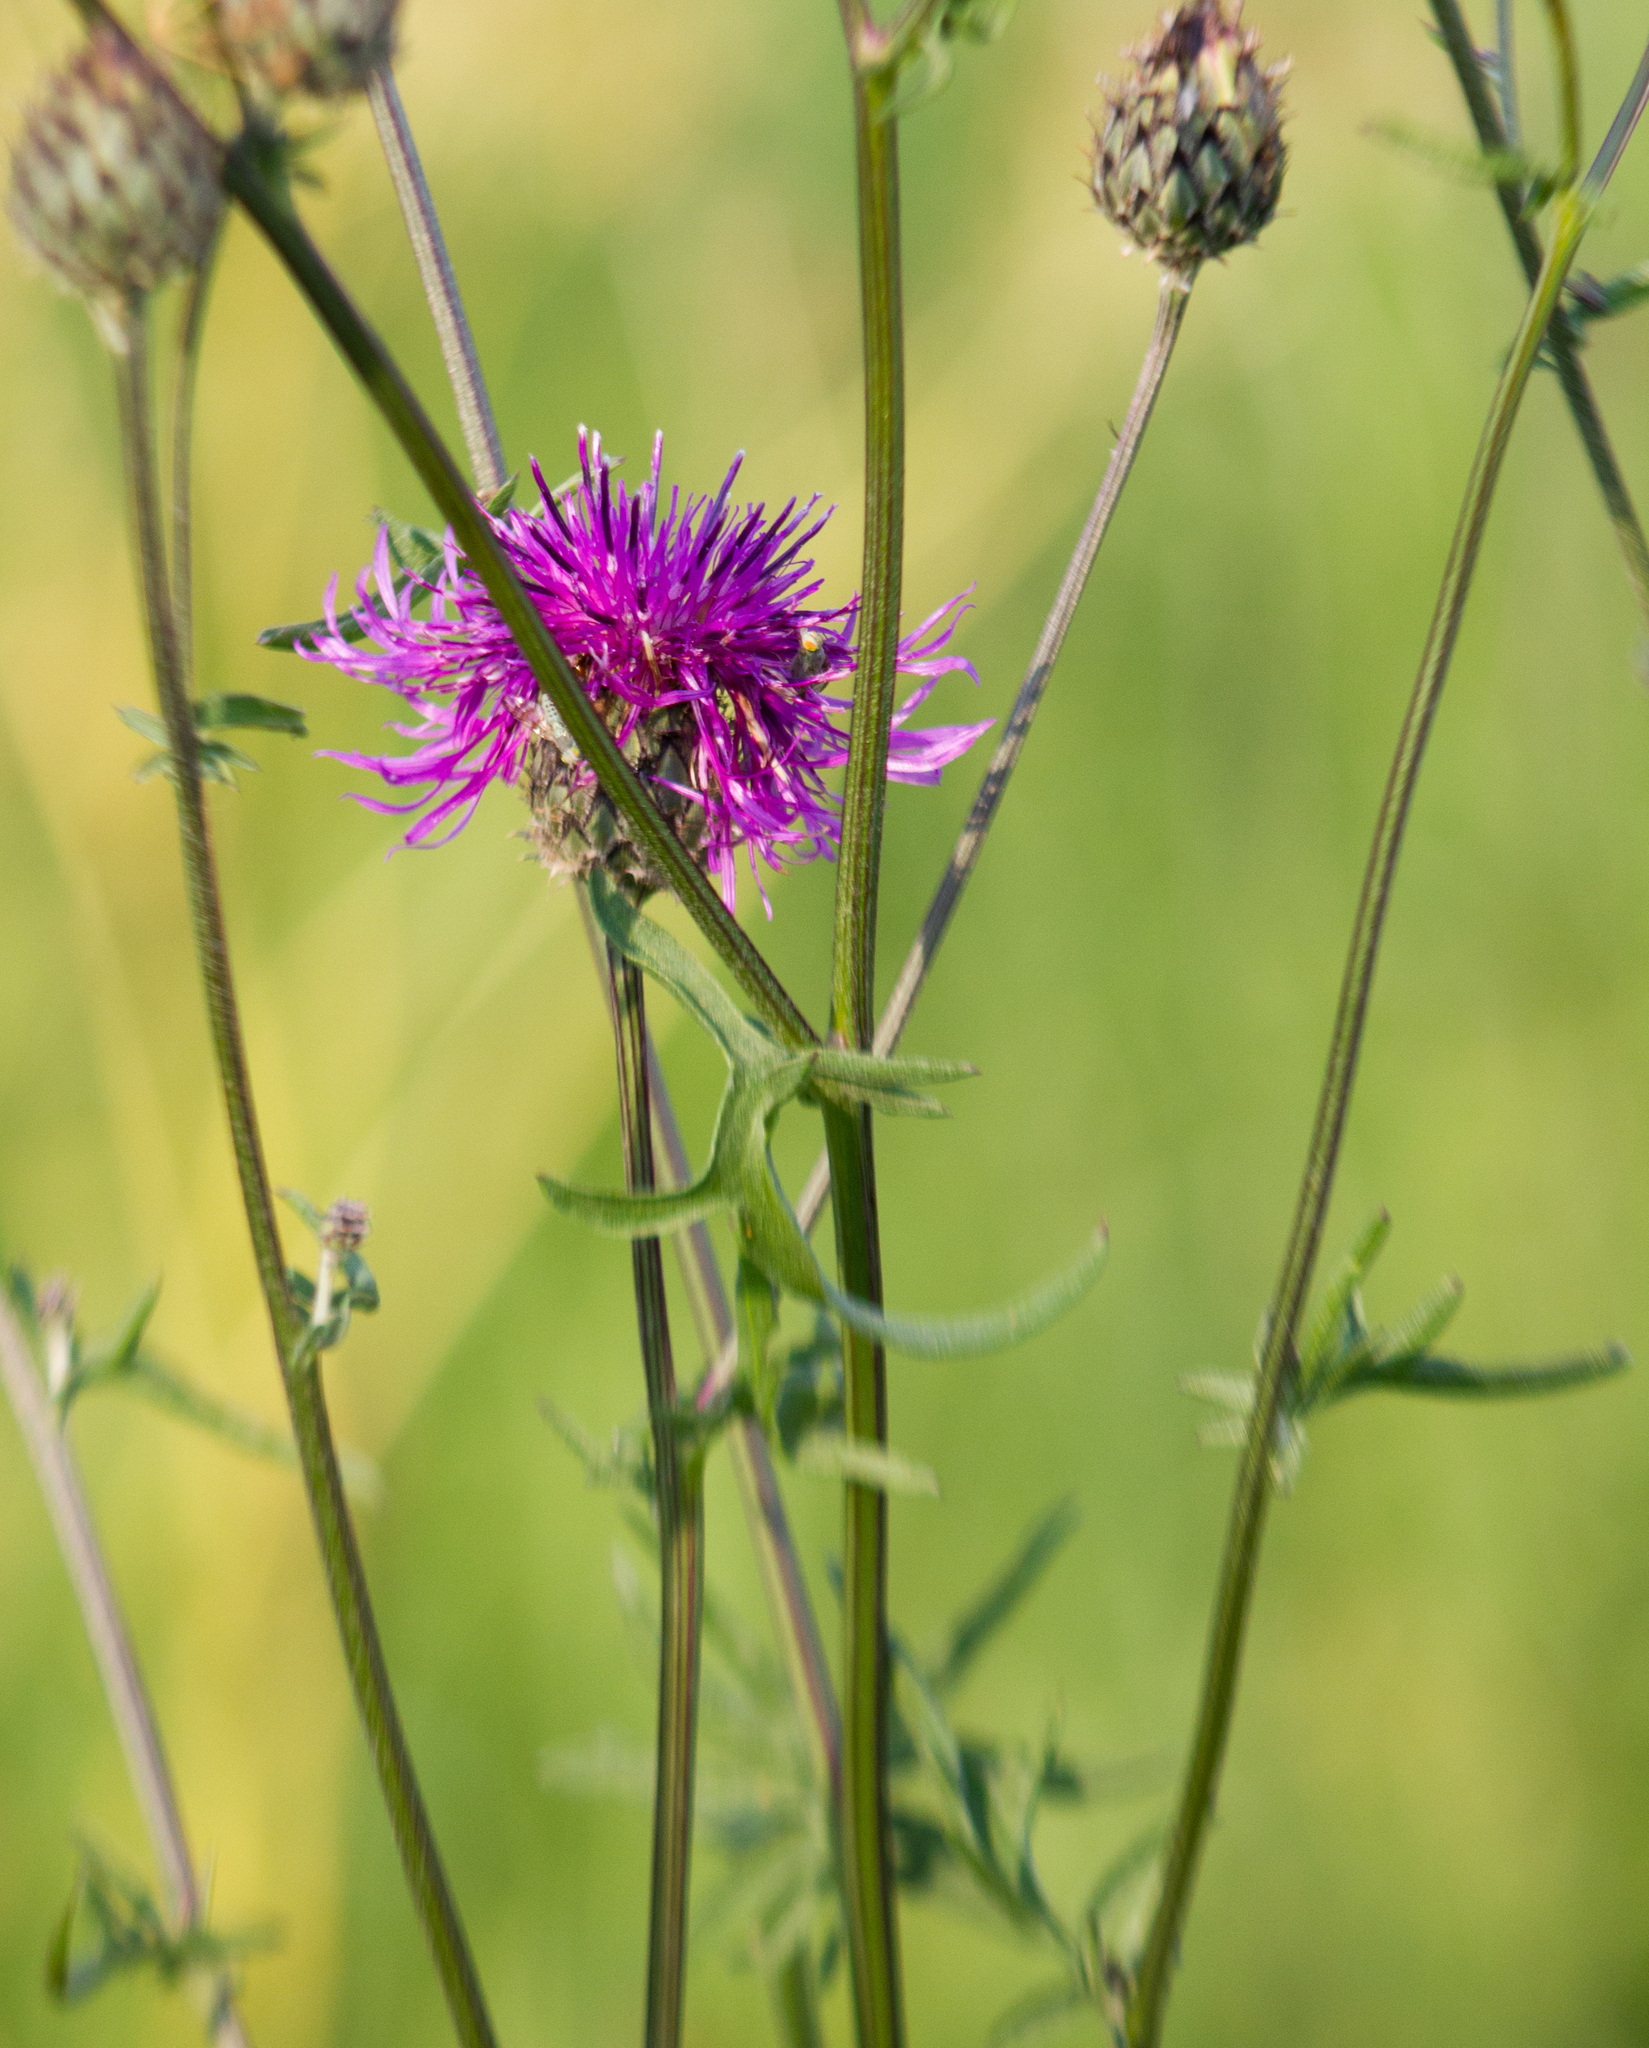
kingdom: Plantae
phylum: Tracheophyta
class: Magnoliopsida
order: Asterales
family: Asteraceae
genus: Centaurea
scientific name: Centaurea scabiosa
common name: Greater knapweed
